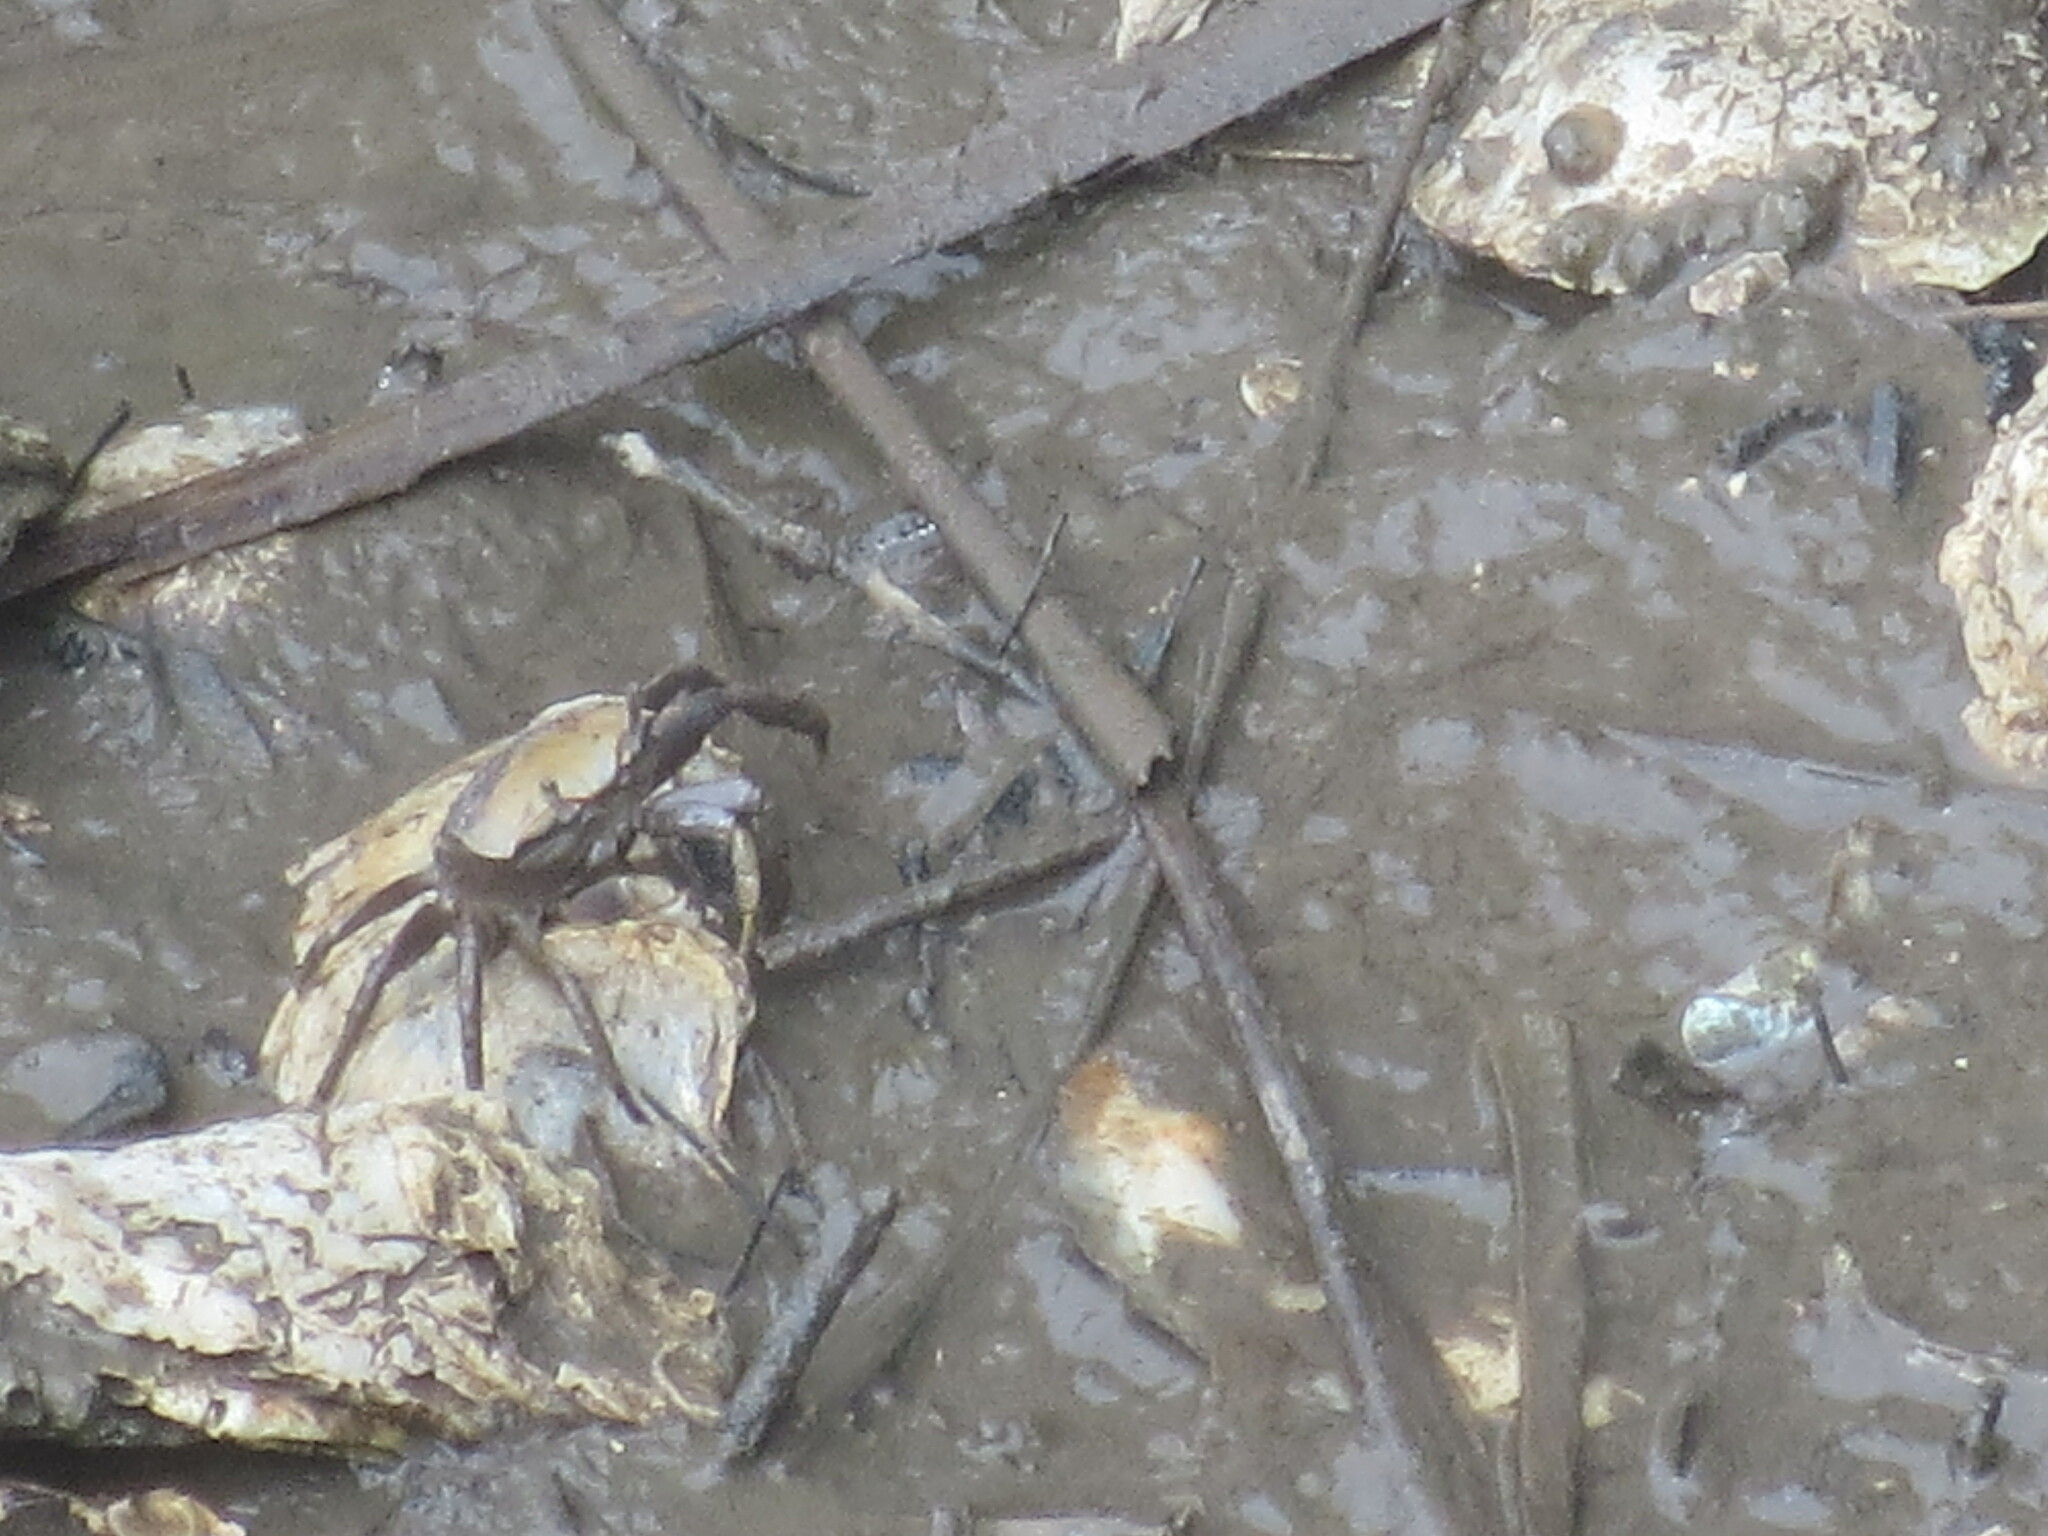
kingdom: Animalia
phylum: Arthropoda
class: Malacostraca
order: Decapoda
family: Ocypodidae
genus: Minuca
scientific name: Minuca minax
